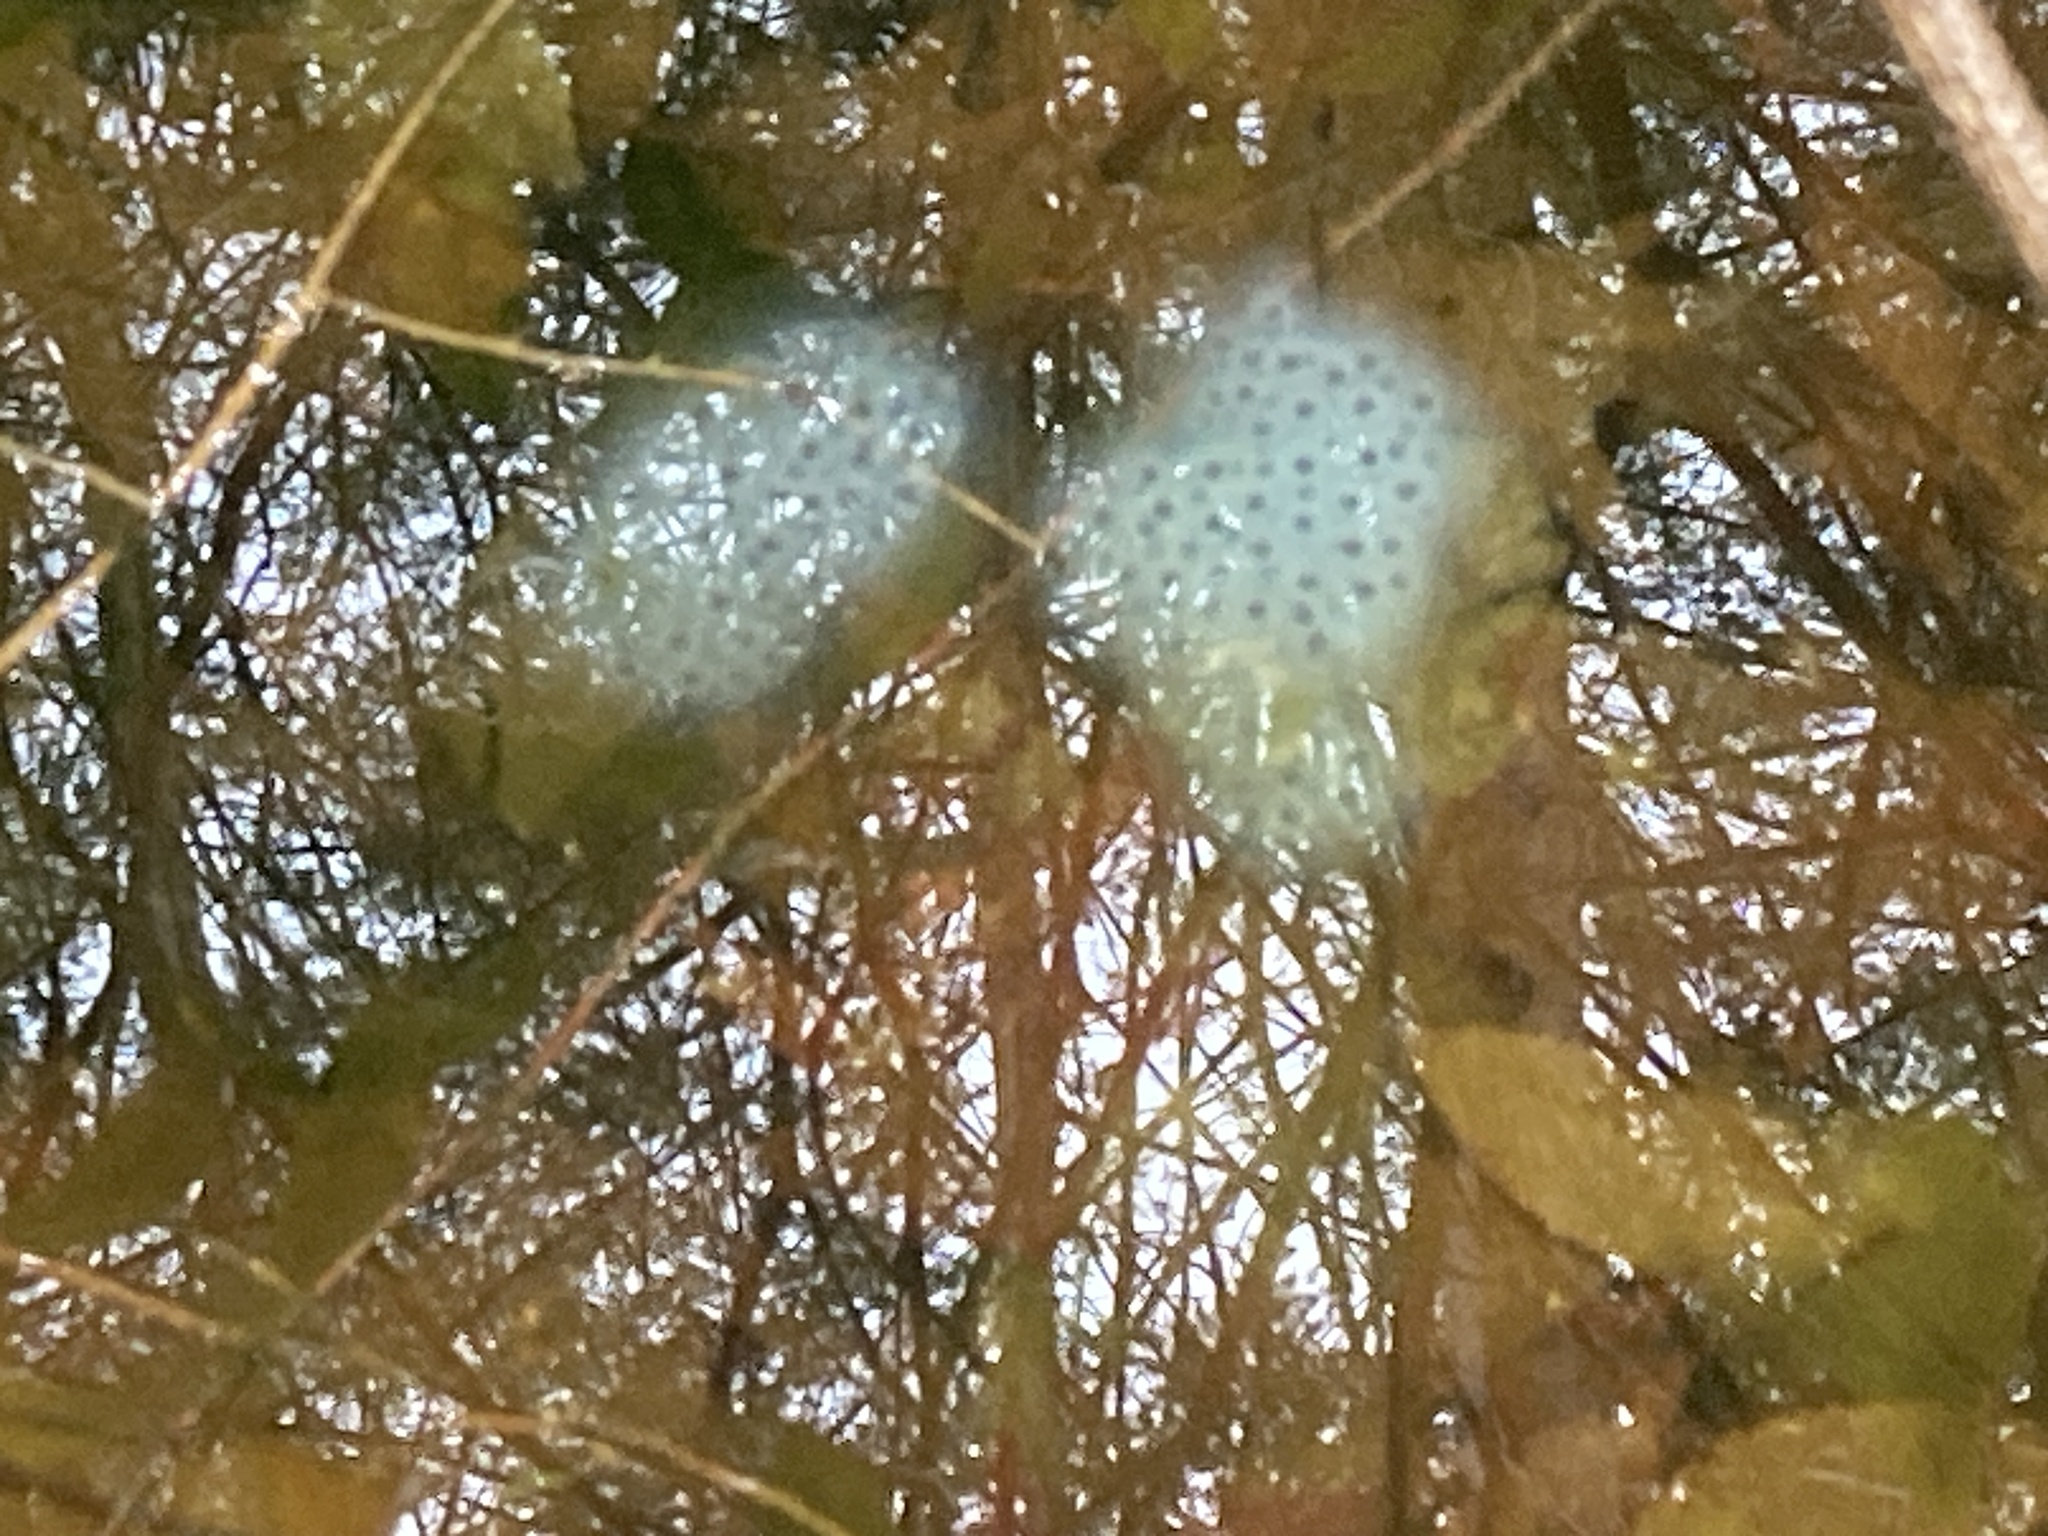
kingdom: Animalia
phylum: Chordata
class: Amphibia
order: Caudata
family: Ambystomatidae
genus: Ambystoma
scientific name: Ambystoma maculatum
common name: Spotted salamander
